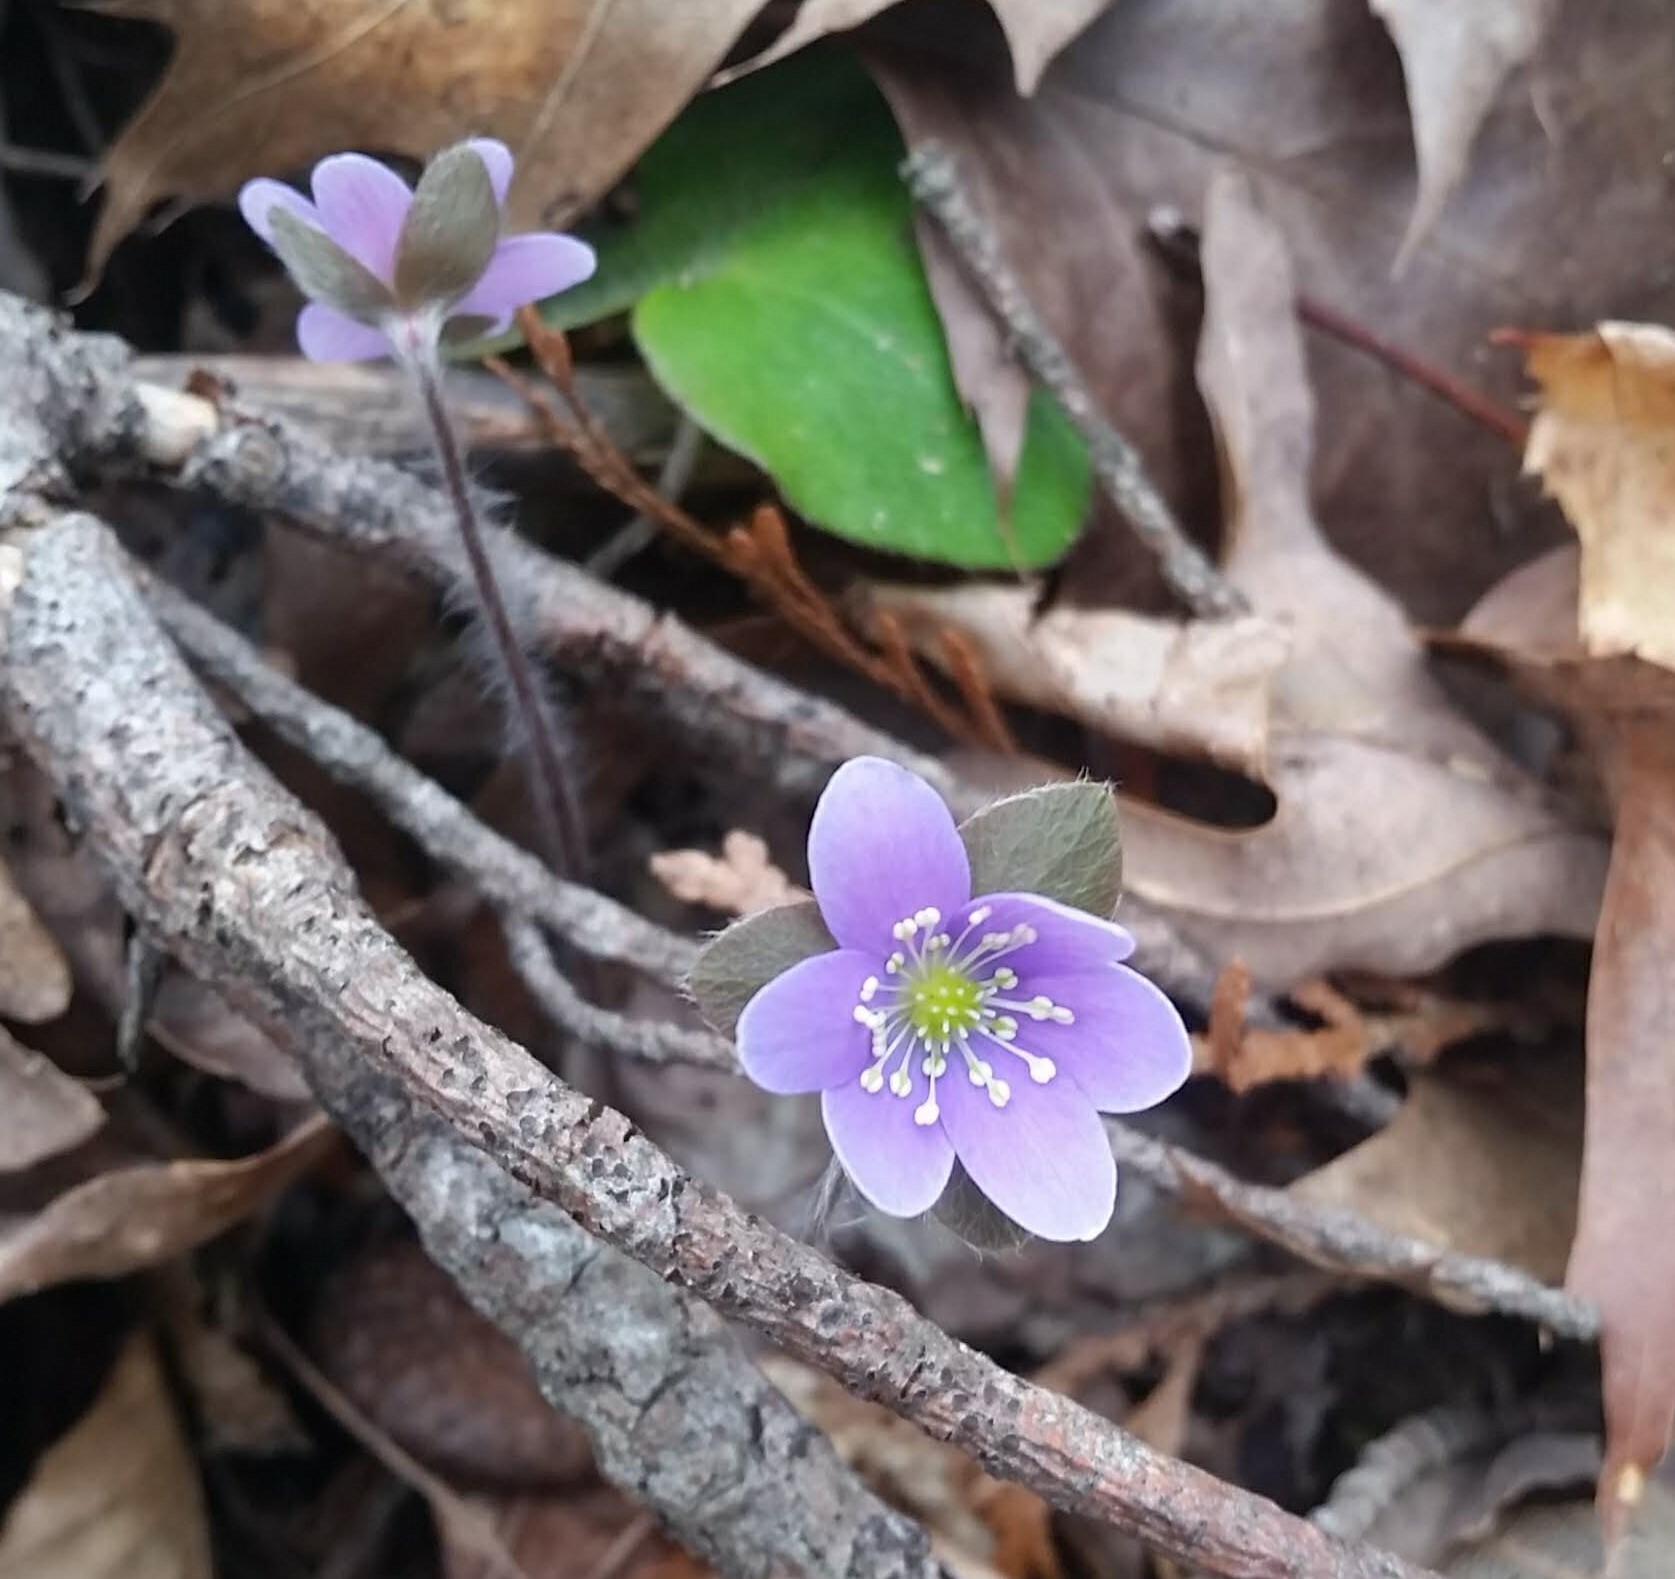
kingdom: Plantae
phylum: Tracheophyta
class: Magnoliopsida
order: Ranunculales
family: Ranunculaceae
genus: Hepatica
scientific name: Hepatica americana
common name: American hepatica
